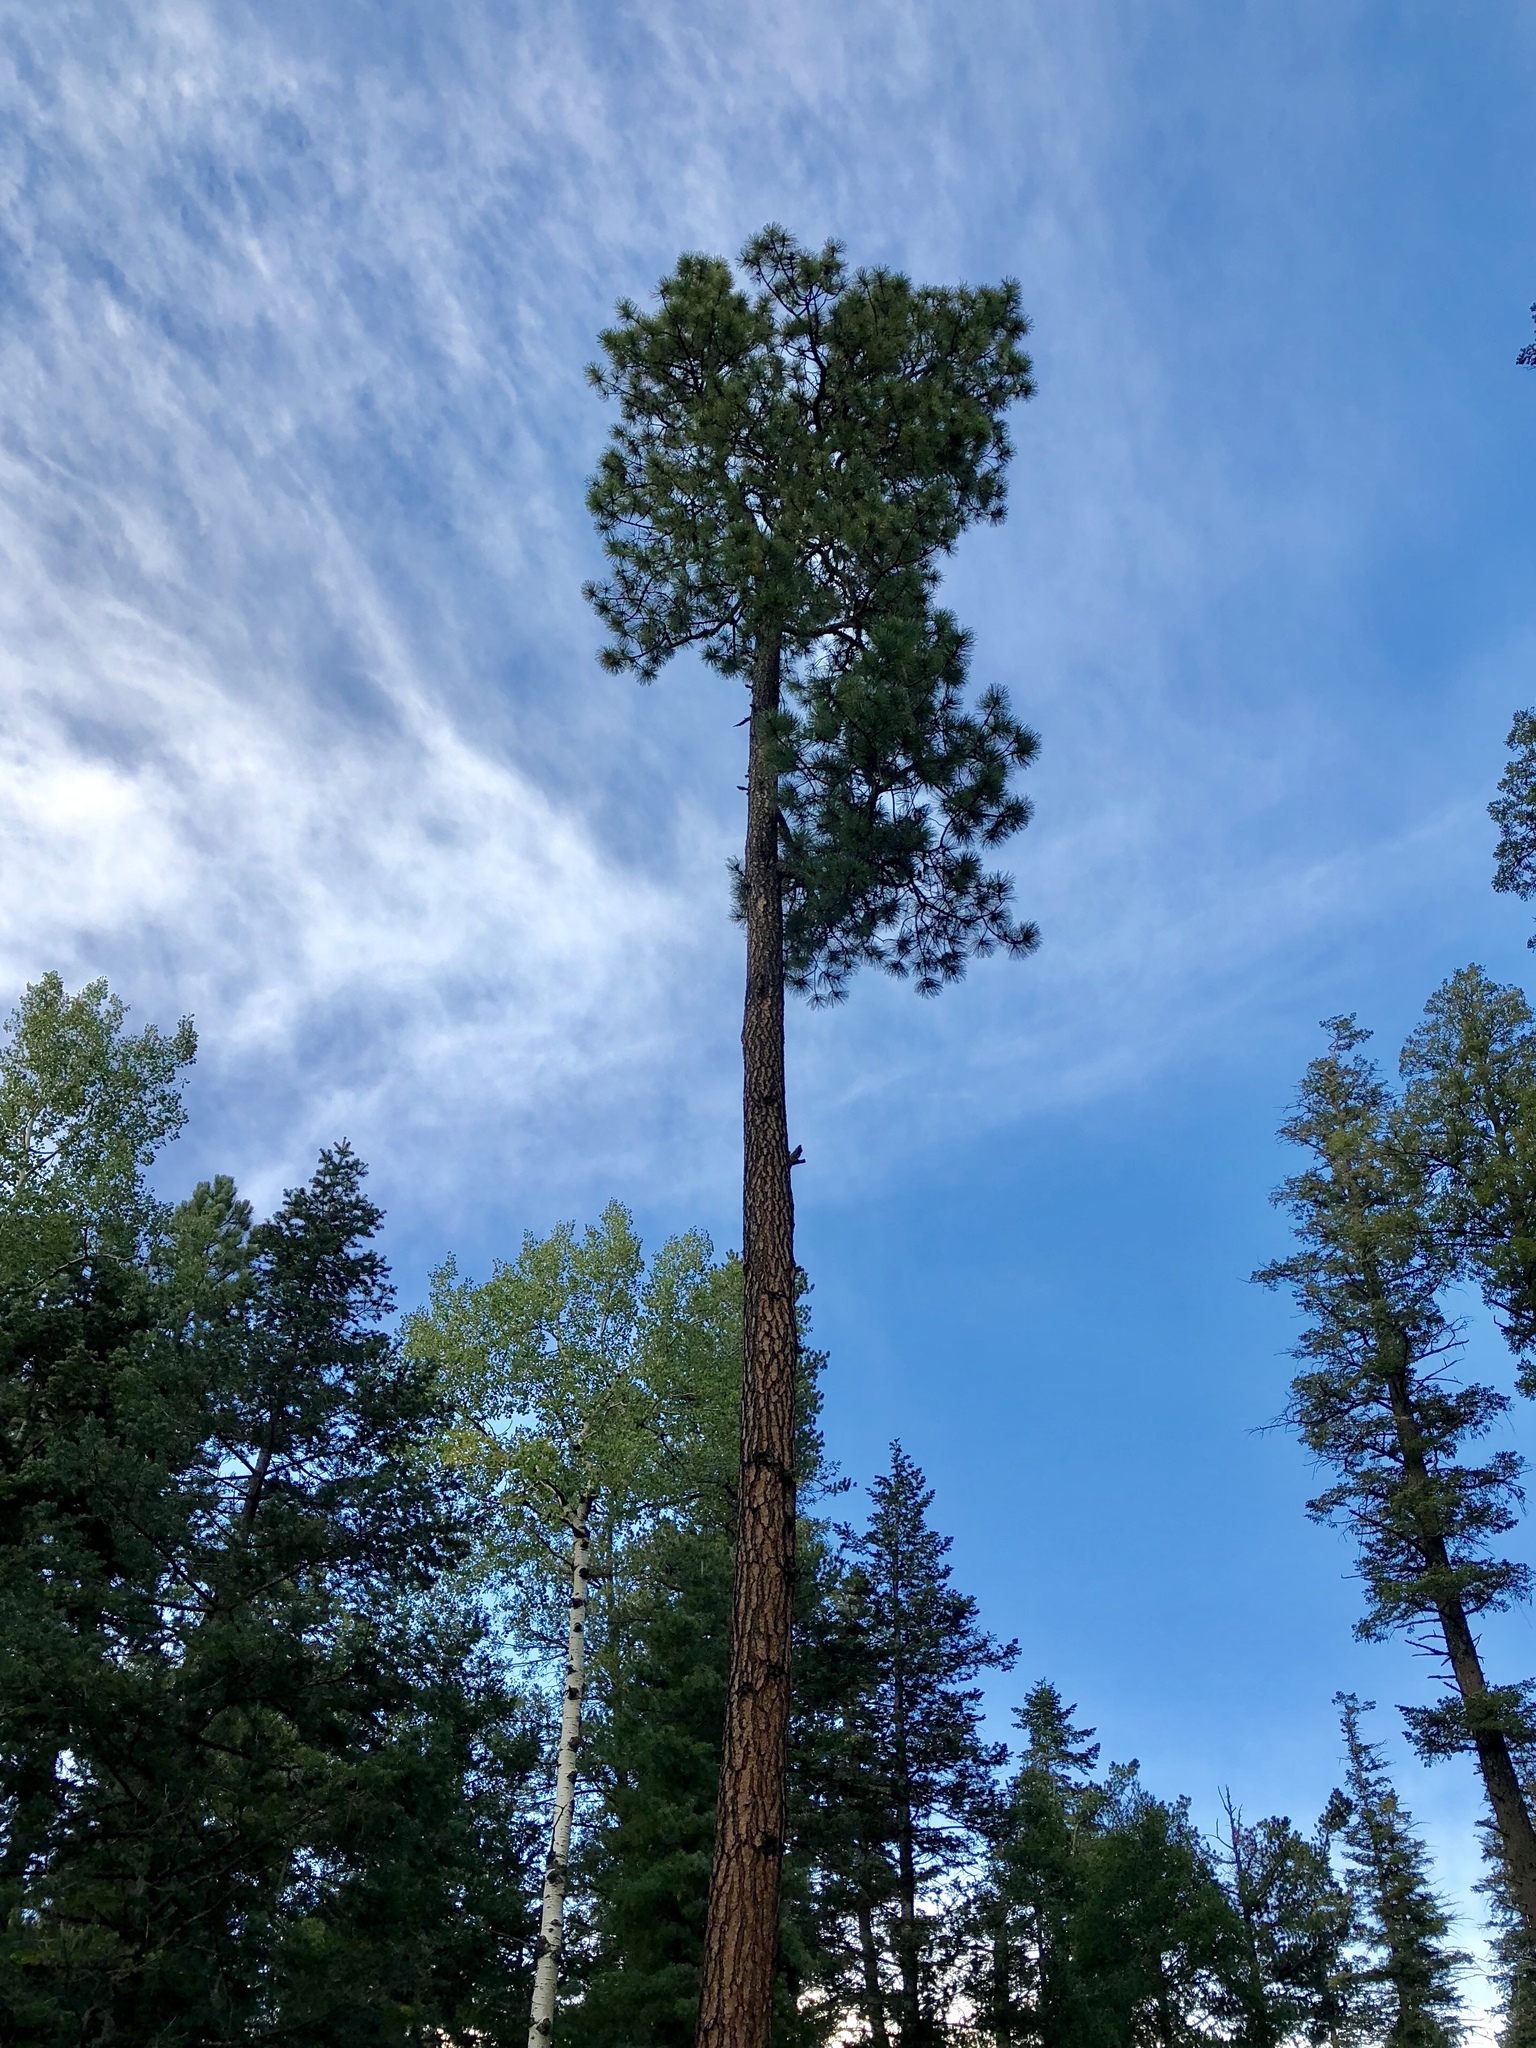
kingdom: Plantae
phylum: Tracheophyta
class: Pinopsida
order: Pinales
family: Pinaceae
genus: Pinus
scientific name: Pinus ponderosa
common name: Western yellow-pine
